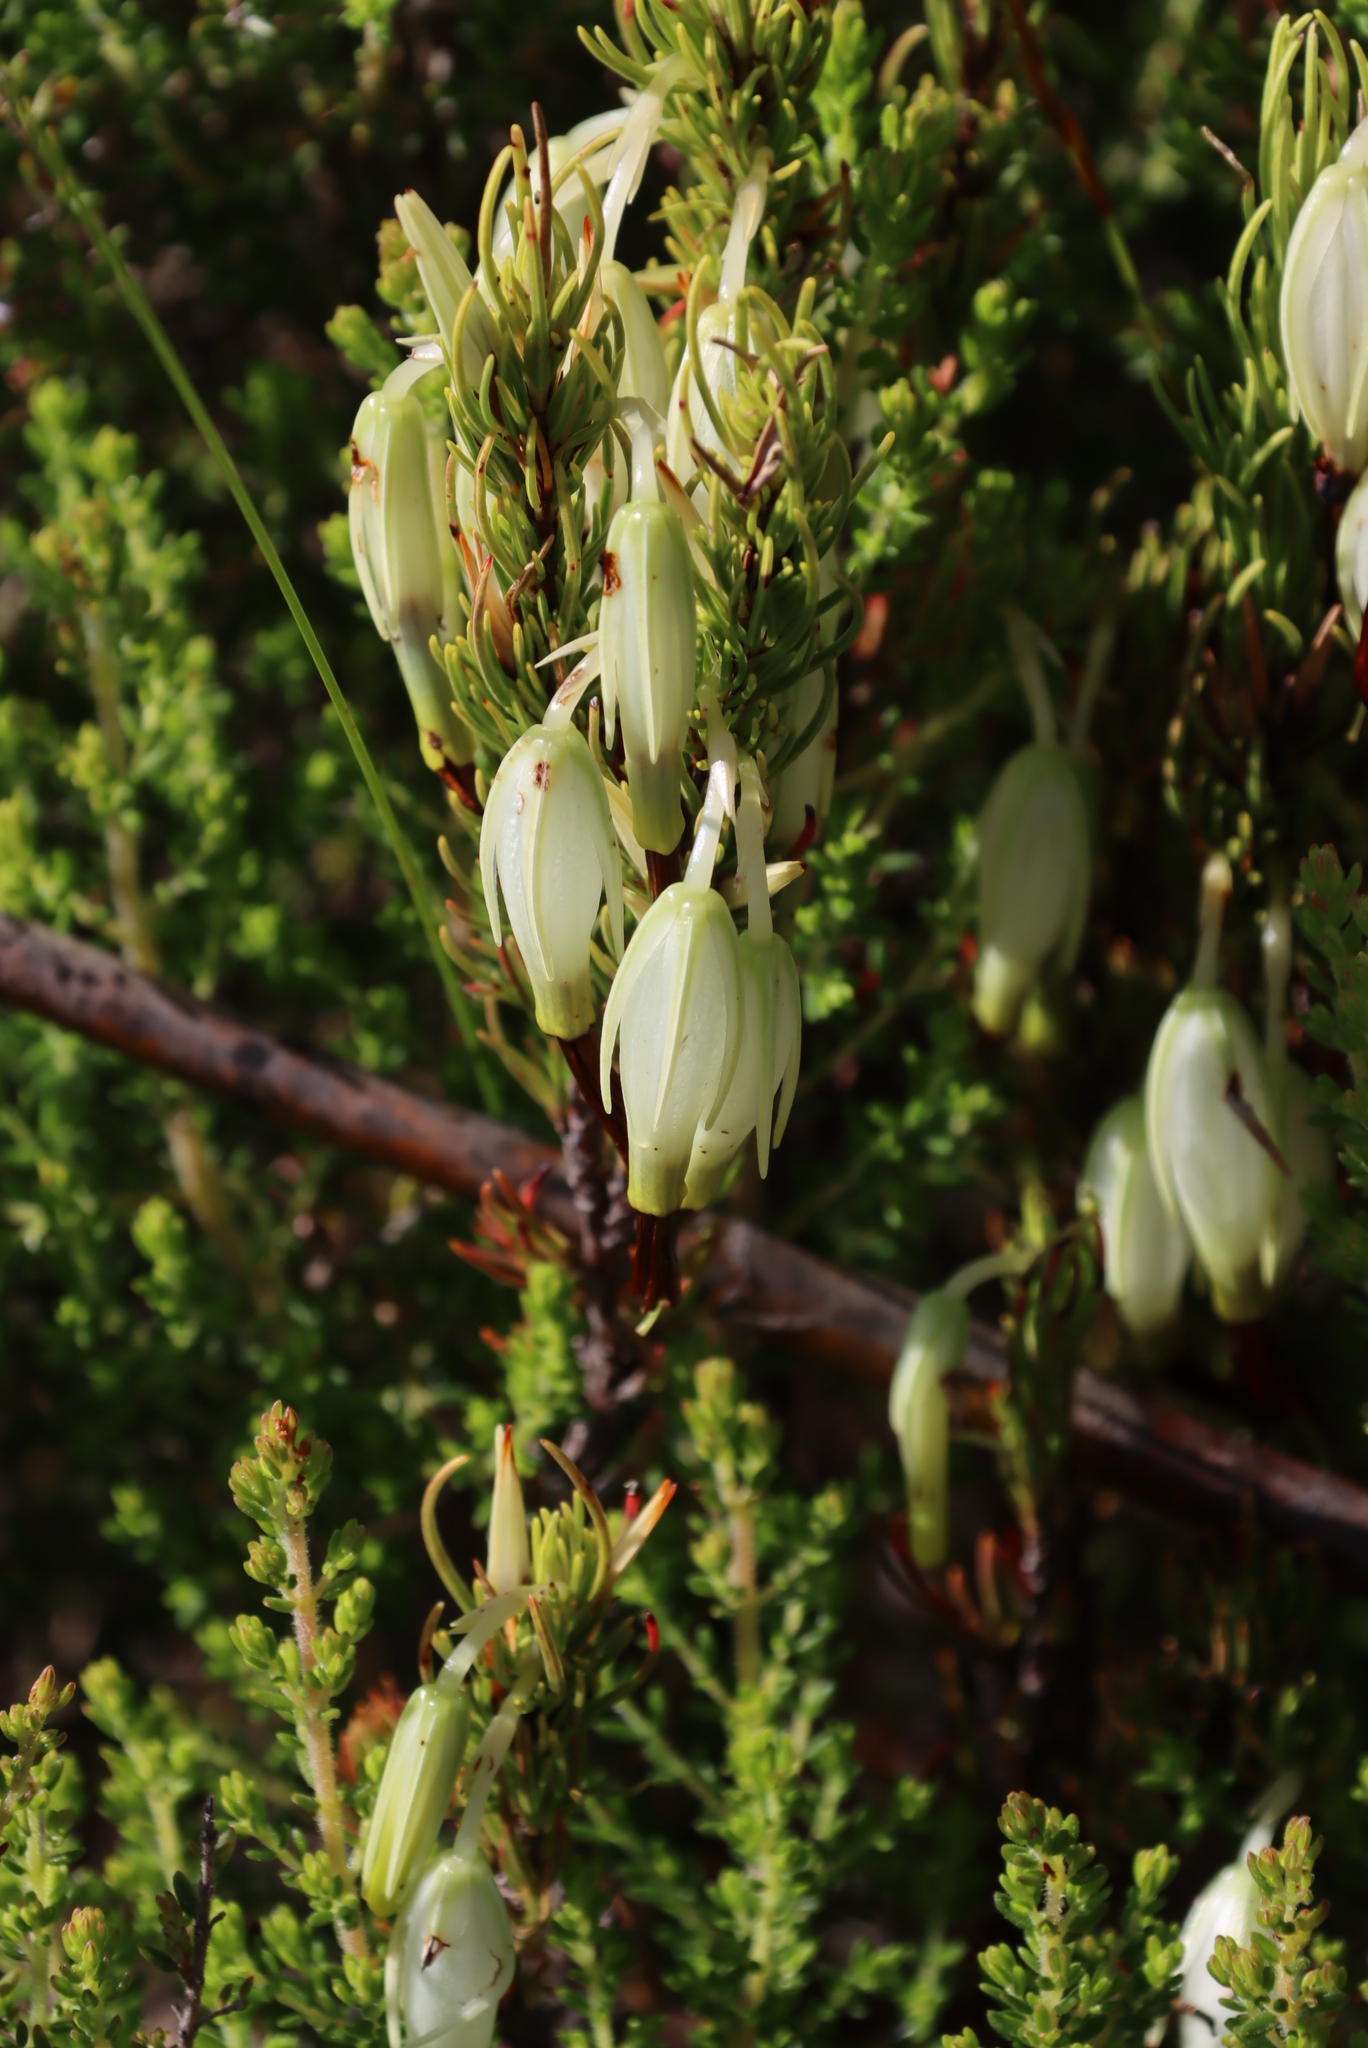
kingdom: Plantae
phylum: Tracheophyta
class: Magnoliopsida
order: Ericales
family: Ericaceae
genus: Erica
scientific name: Erica plukenetii
